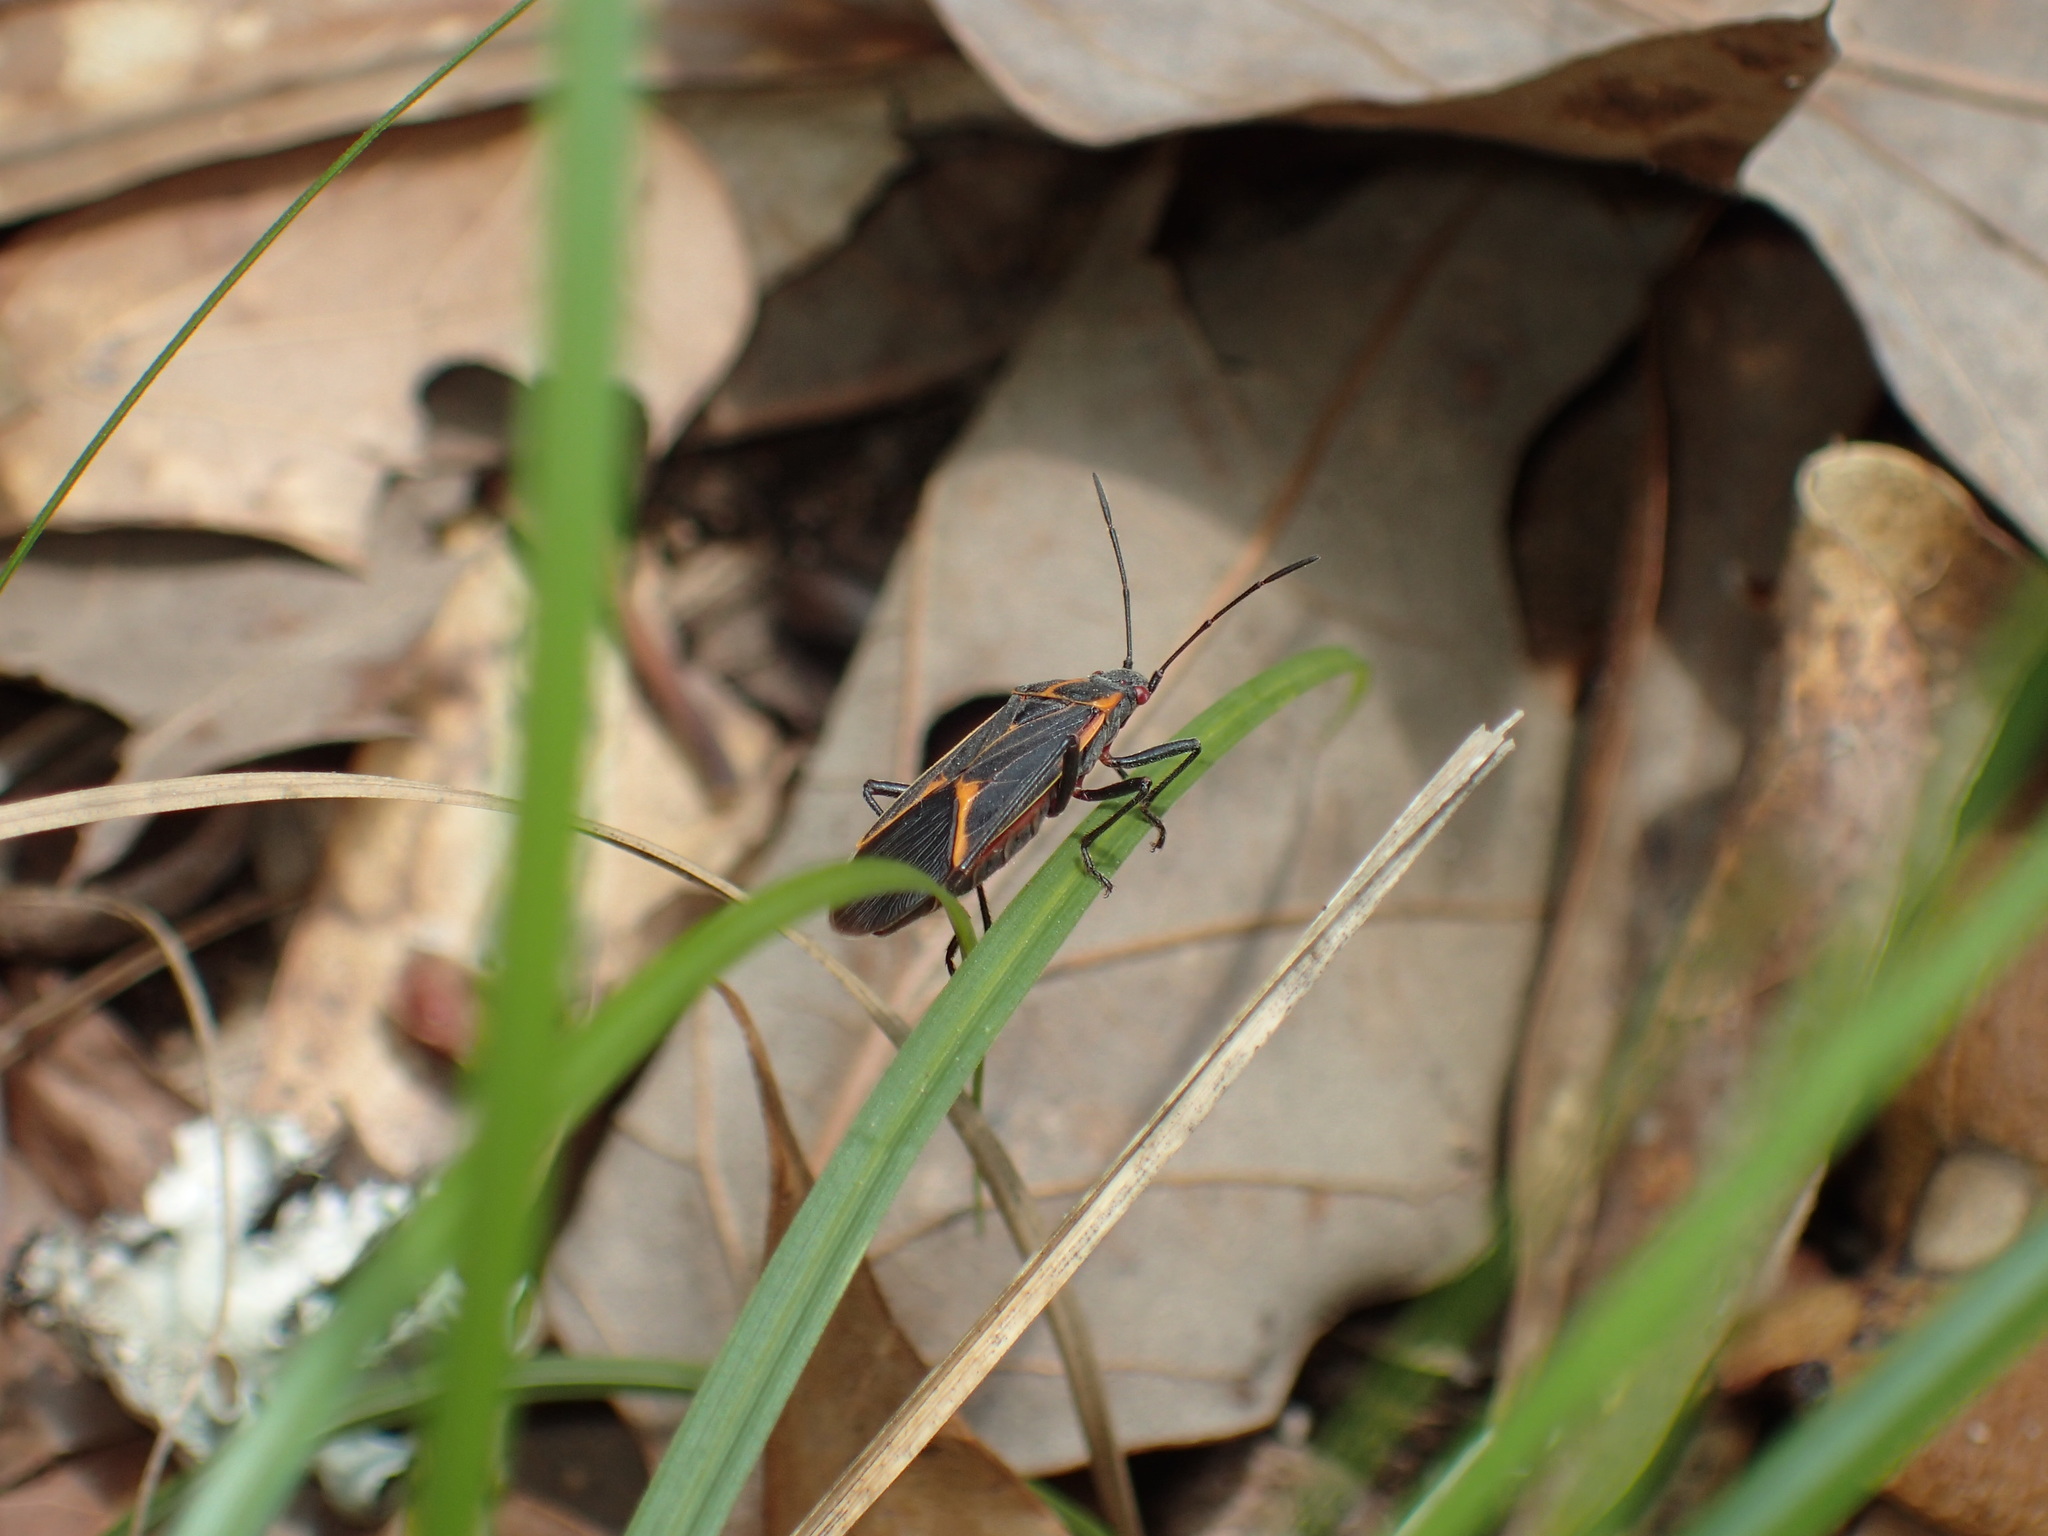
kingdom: Animalia
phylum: Arthropoda
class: Insecta
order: Hemiptera
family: Rhopalidae
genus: Boisea
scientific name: Boisea trivittata
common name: Boxelder bug
